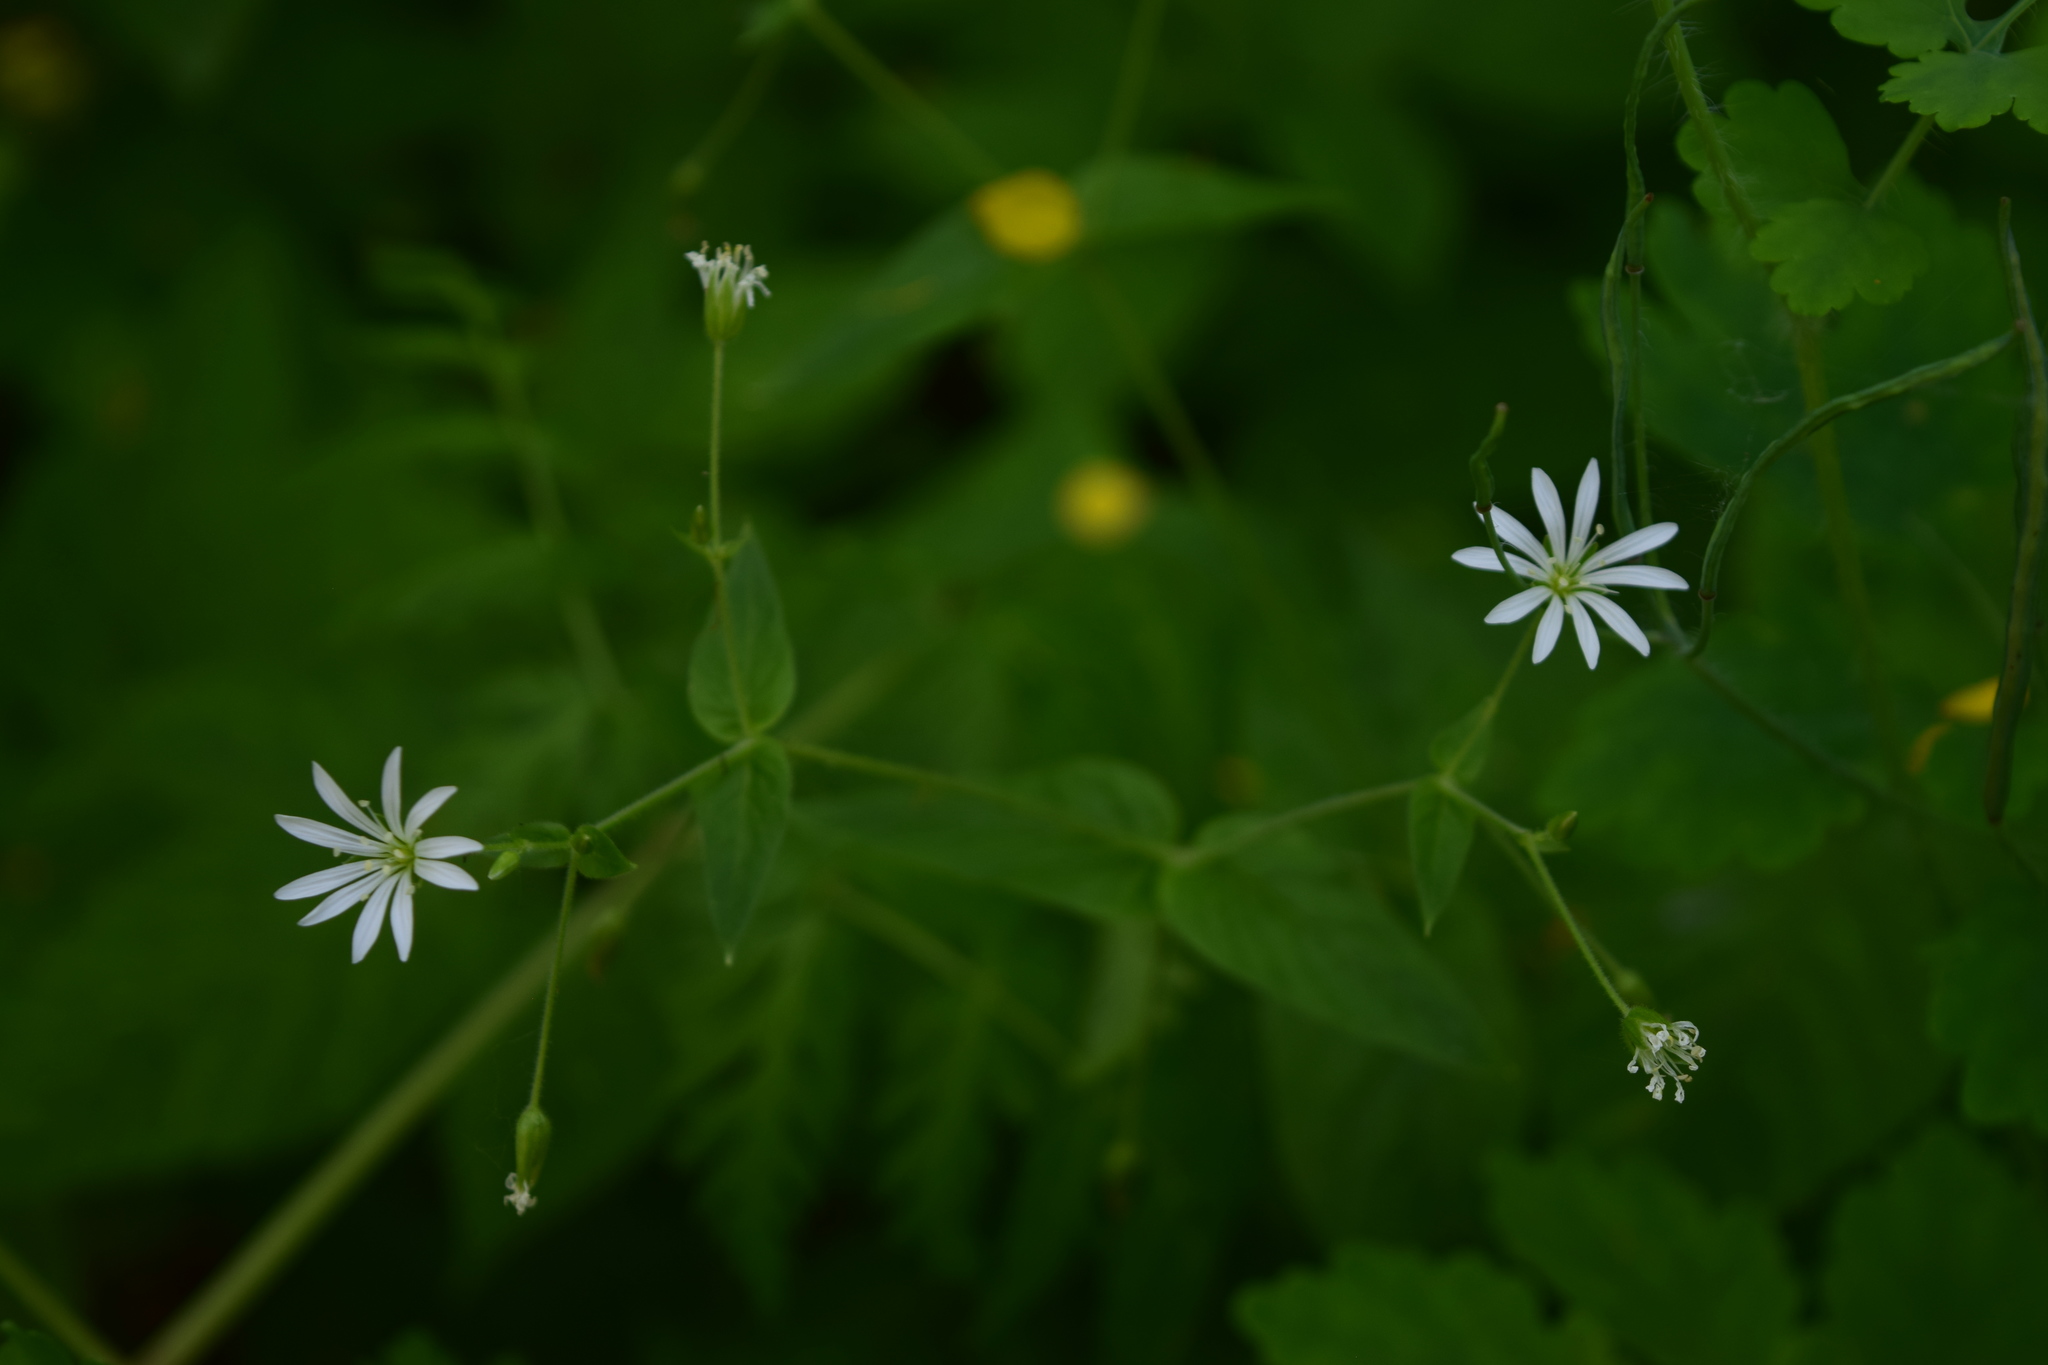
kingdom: Plantae
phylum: Tracheophyta
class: Magnoliopsida
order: Caryophyllales
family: Caryophyllaceae
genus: Stellaria
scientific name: Stellaria nemorum
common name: Wood stitchwort
